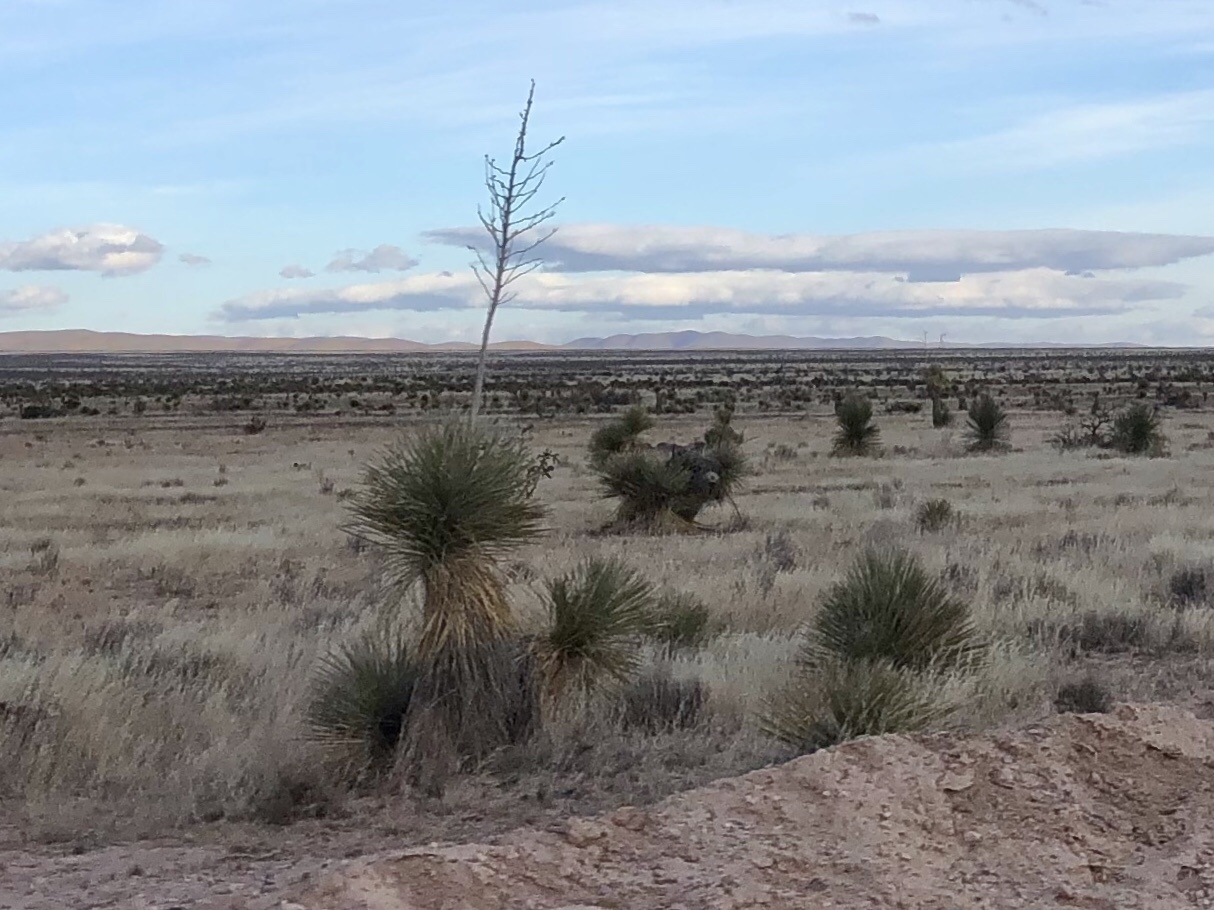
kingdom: Plantae
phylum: Tracheophyta
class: Liliopsida
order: Asparagales
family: Asparagaceae
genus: Yucca
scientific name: Yucca elata
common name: Palmella
